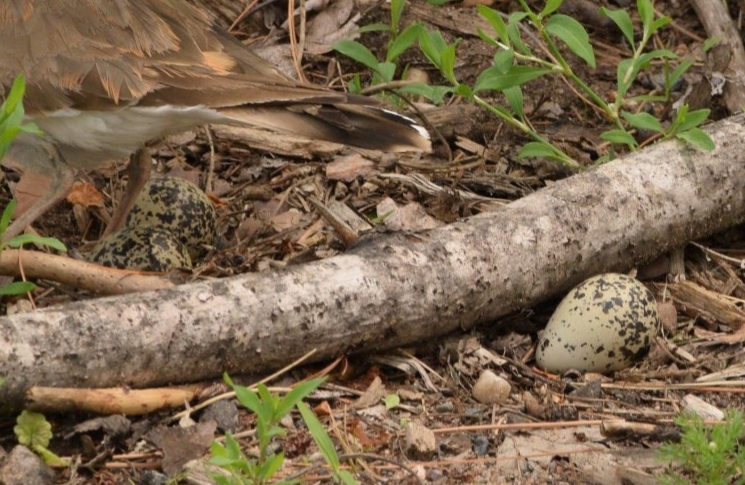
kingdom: Animalia
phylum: Chordata
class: Aves
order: Charadriiformes
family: Charadriidae
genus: Charadrius
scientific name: Charadrius vociferus
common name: Killdeer
